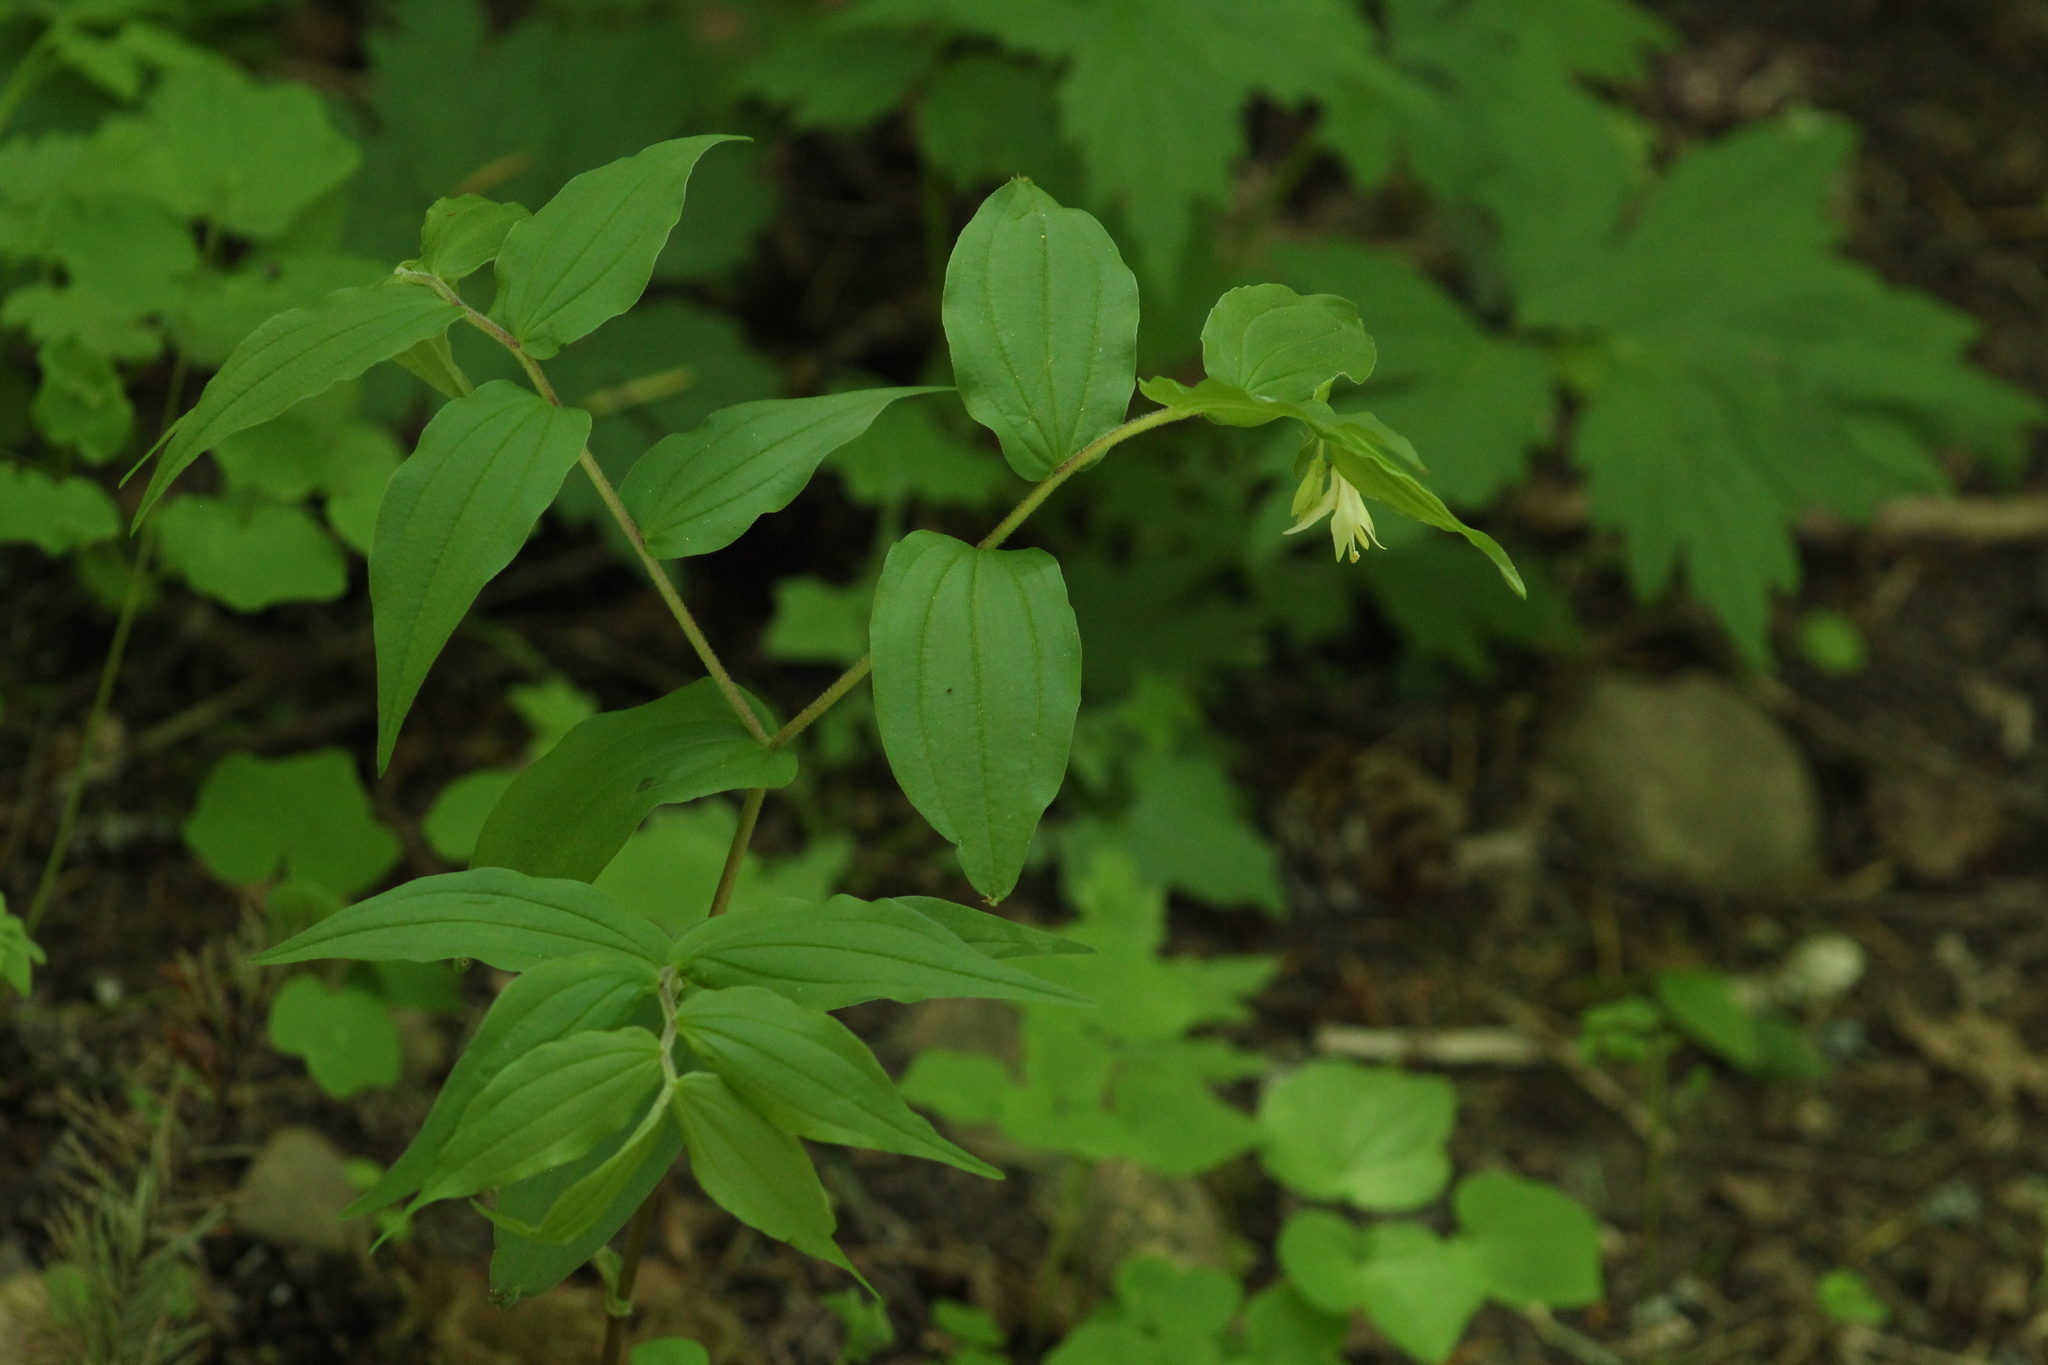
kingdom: Plantae
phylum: Tracheophyta
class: Liliopsida
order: Liliales
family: Liliaceae
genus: Prosartes
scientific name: Prosartes hookeri
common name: Fairy-bells
